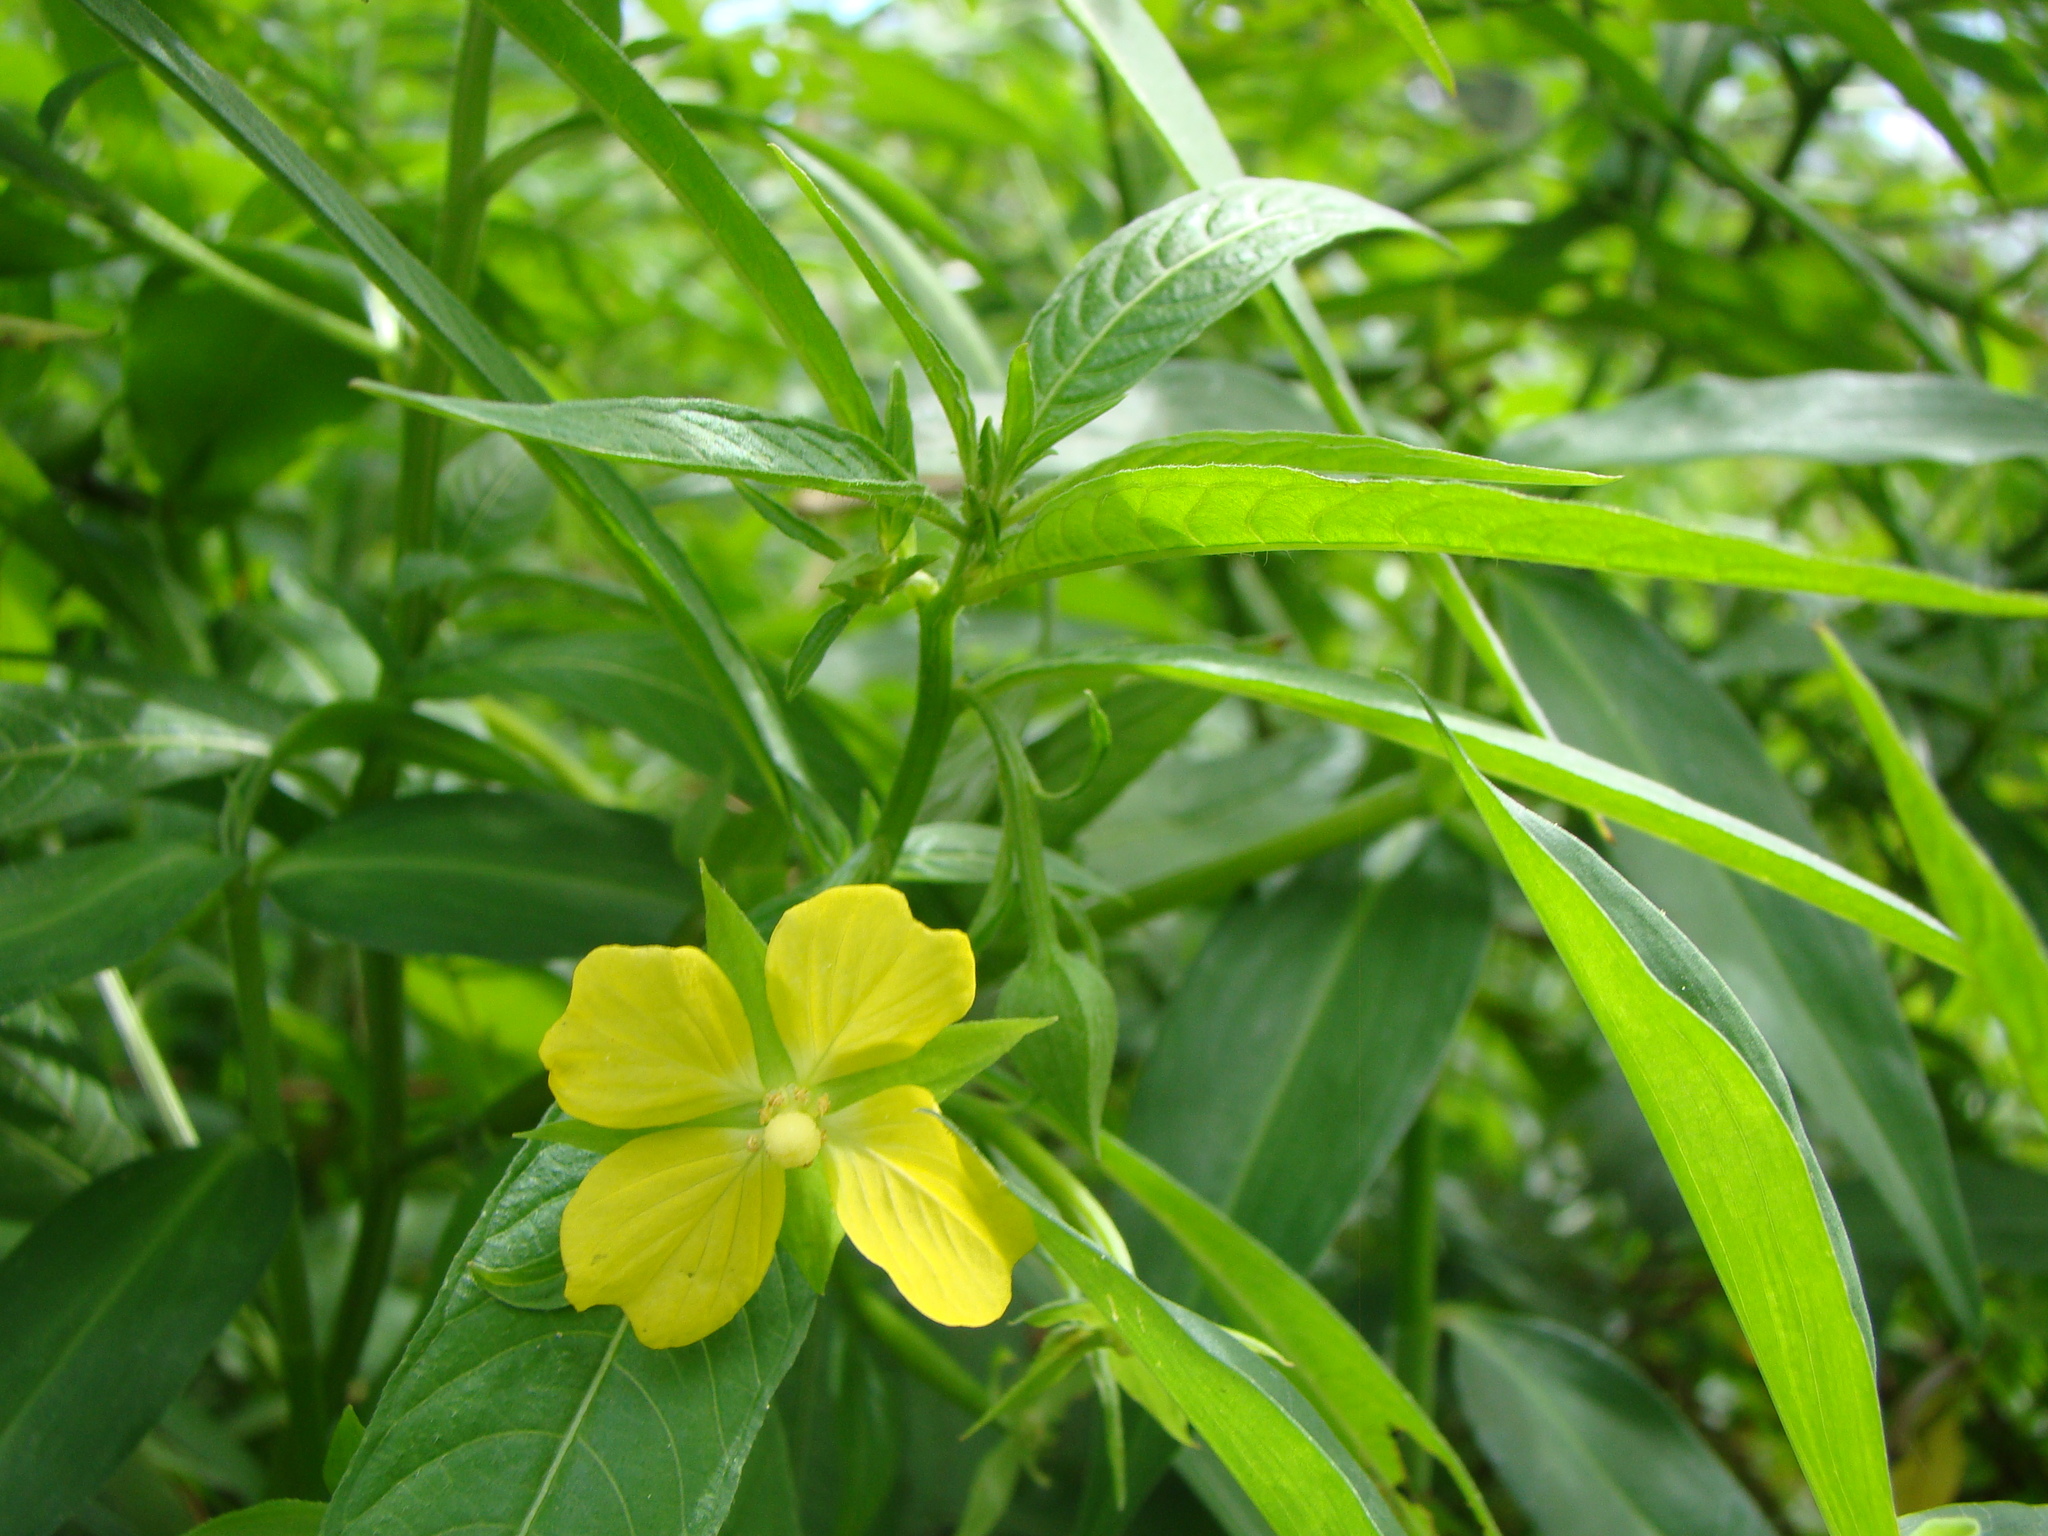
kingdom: Plantae
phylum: Tracheophyta
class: Magnoliopsida
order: Myrtales
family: Onagraceae
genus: Ludwigia
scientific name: Ludwigia octovalvis
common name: Water-primrose
